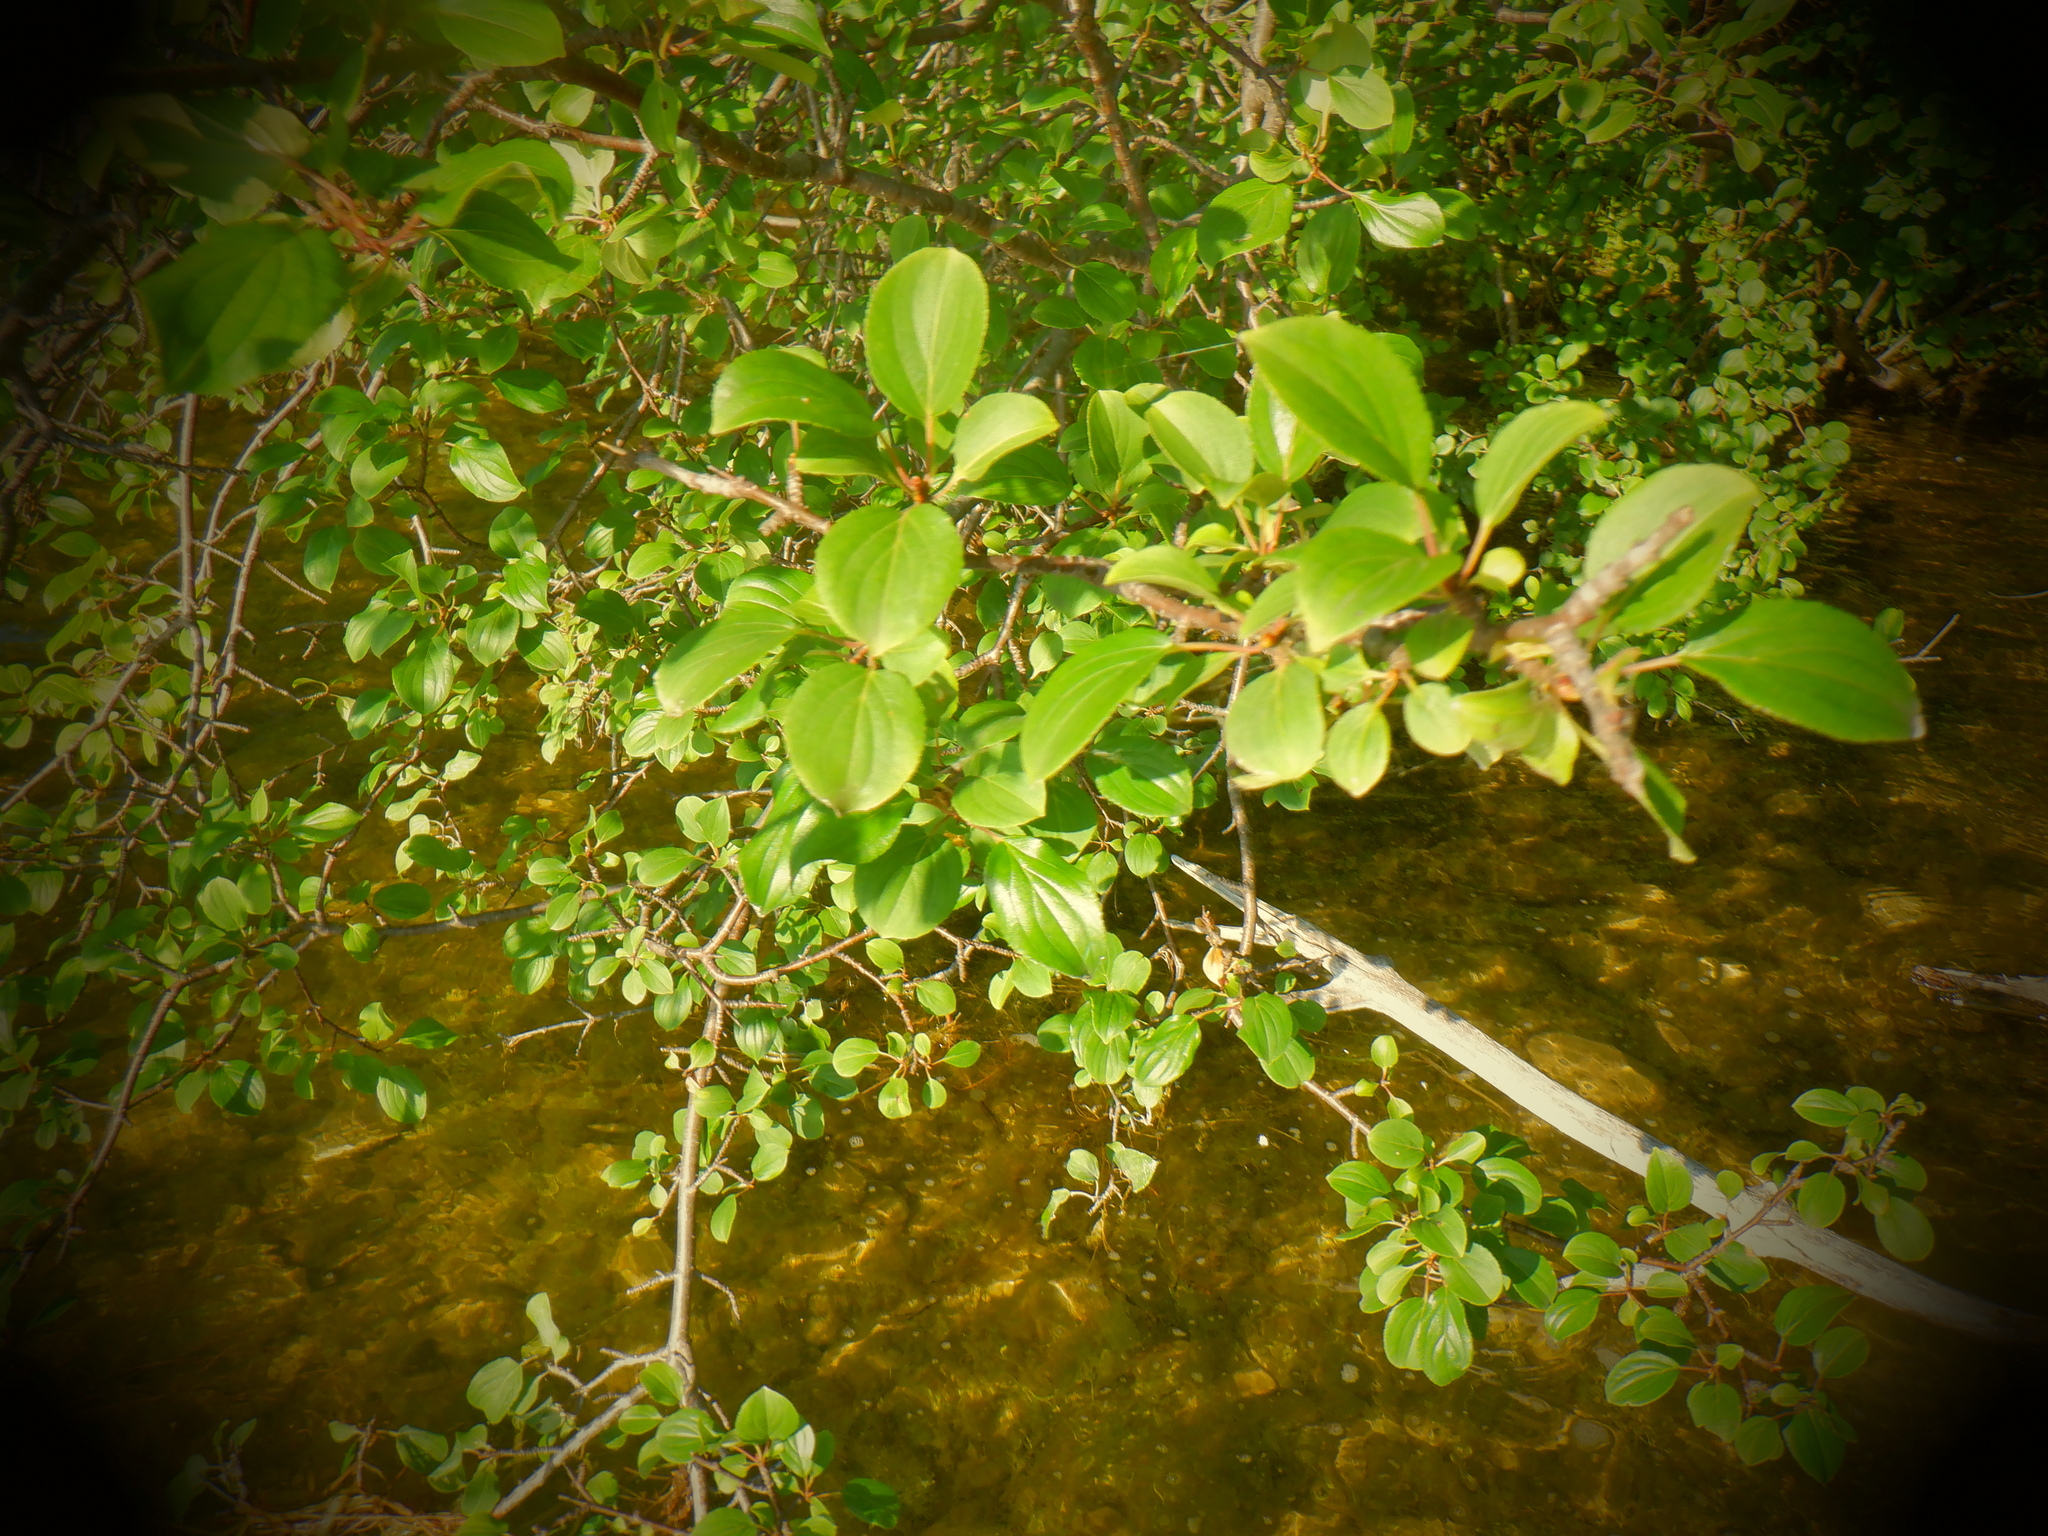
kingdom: Plantae
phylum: Tracheophyta
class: Magnoliopsida
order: Rosales
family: Rhamnaceae
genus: Rhamnus
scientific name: Rhamnus cathartica
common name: Common buckthorn
